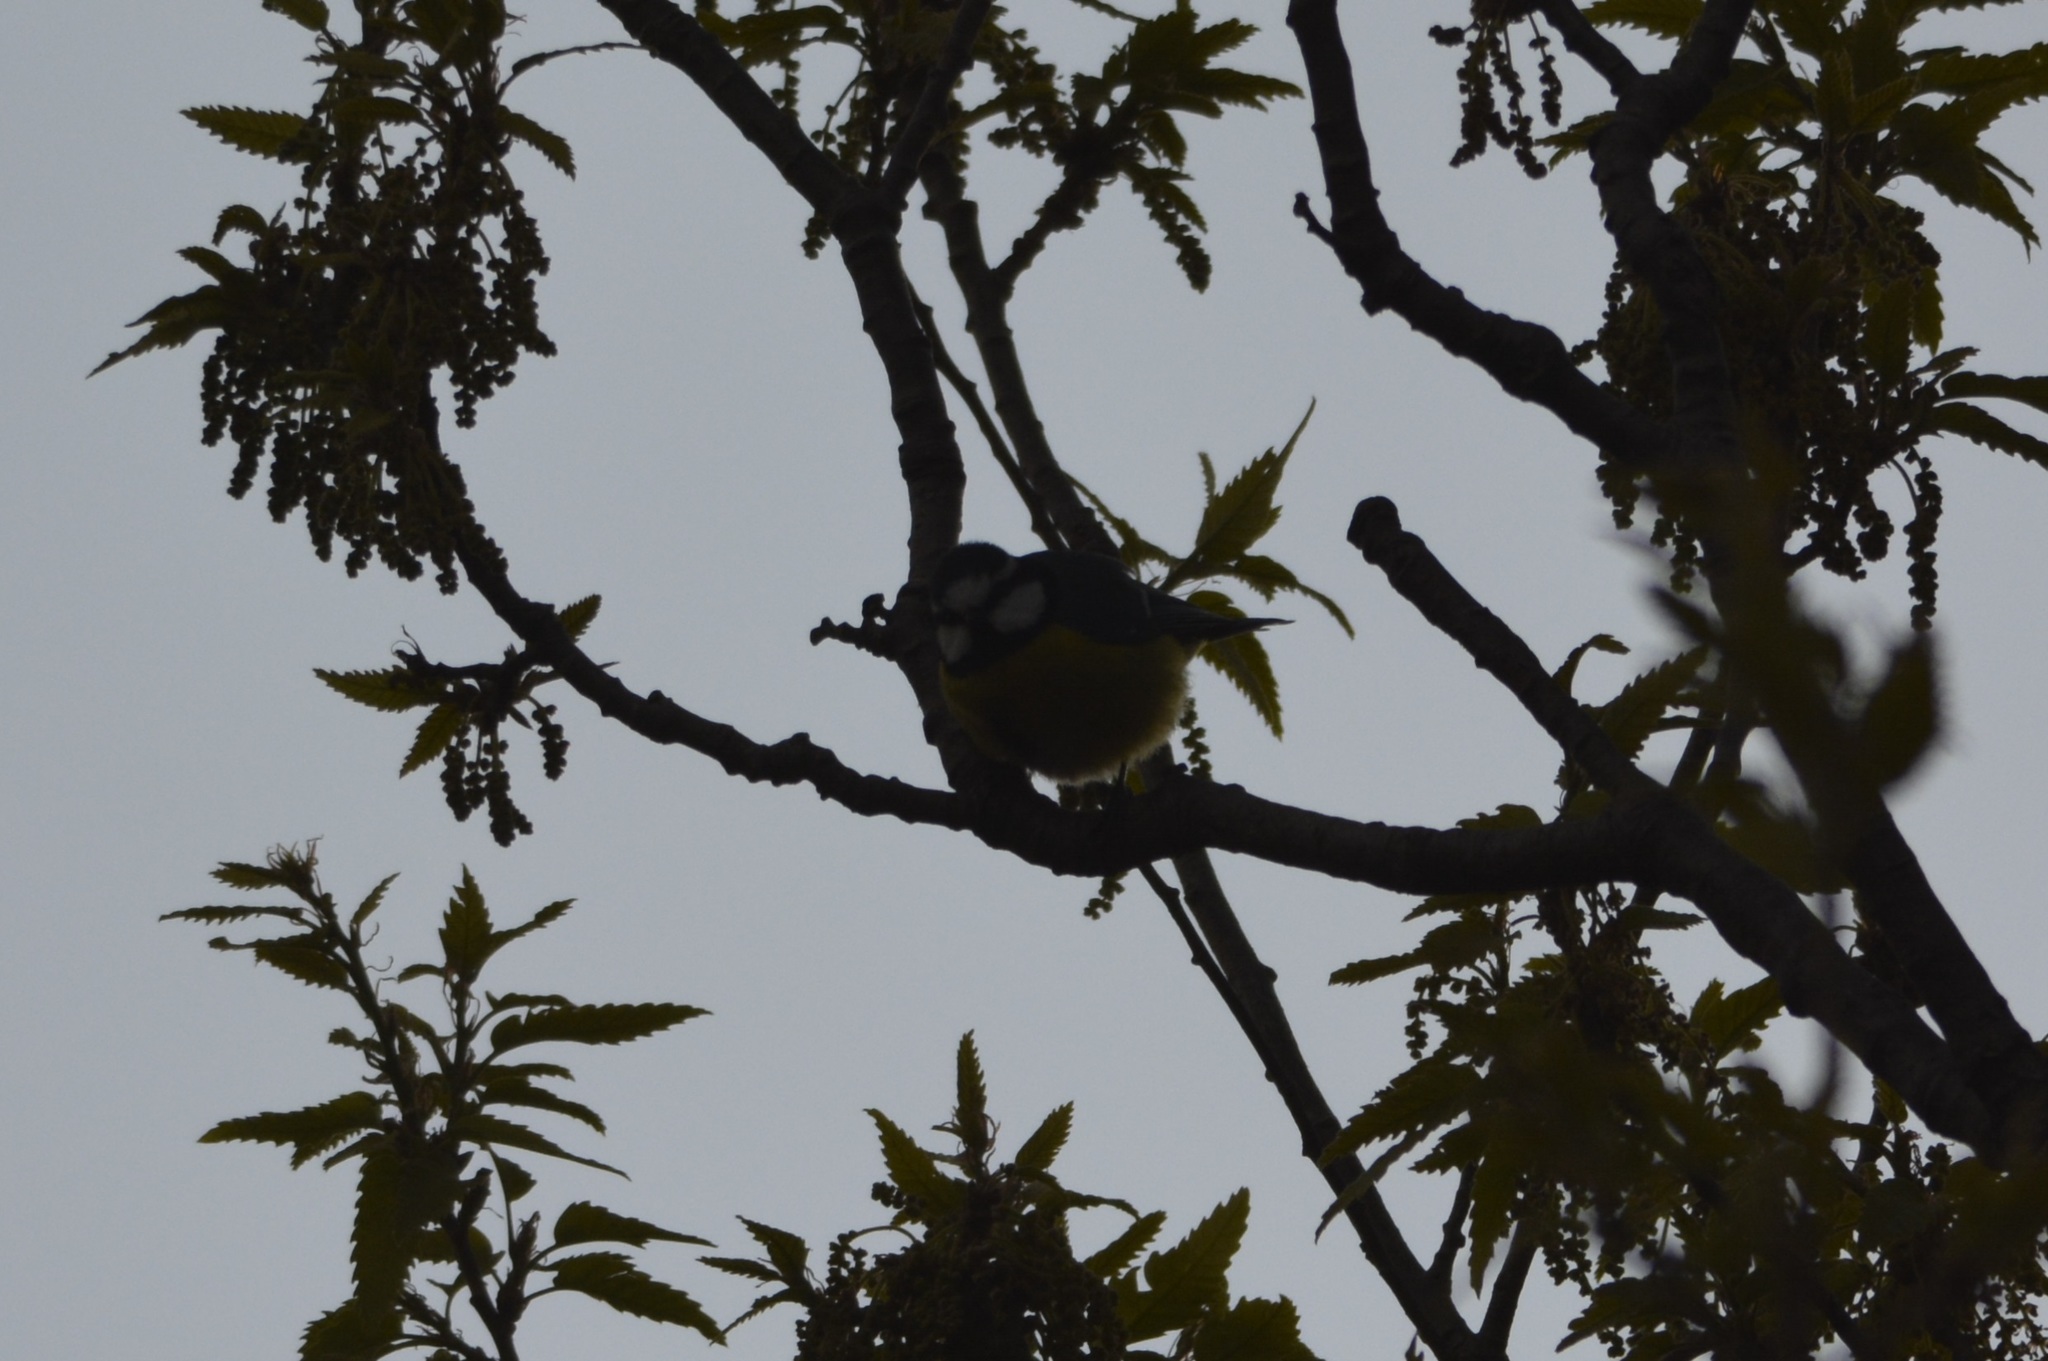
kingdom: Animalia
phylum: Chordata
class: Aves
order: Passeriformes
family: Paridae
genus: Cyanistes
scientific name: Cyanistes teneriffae
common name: African blue tit
